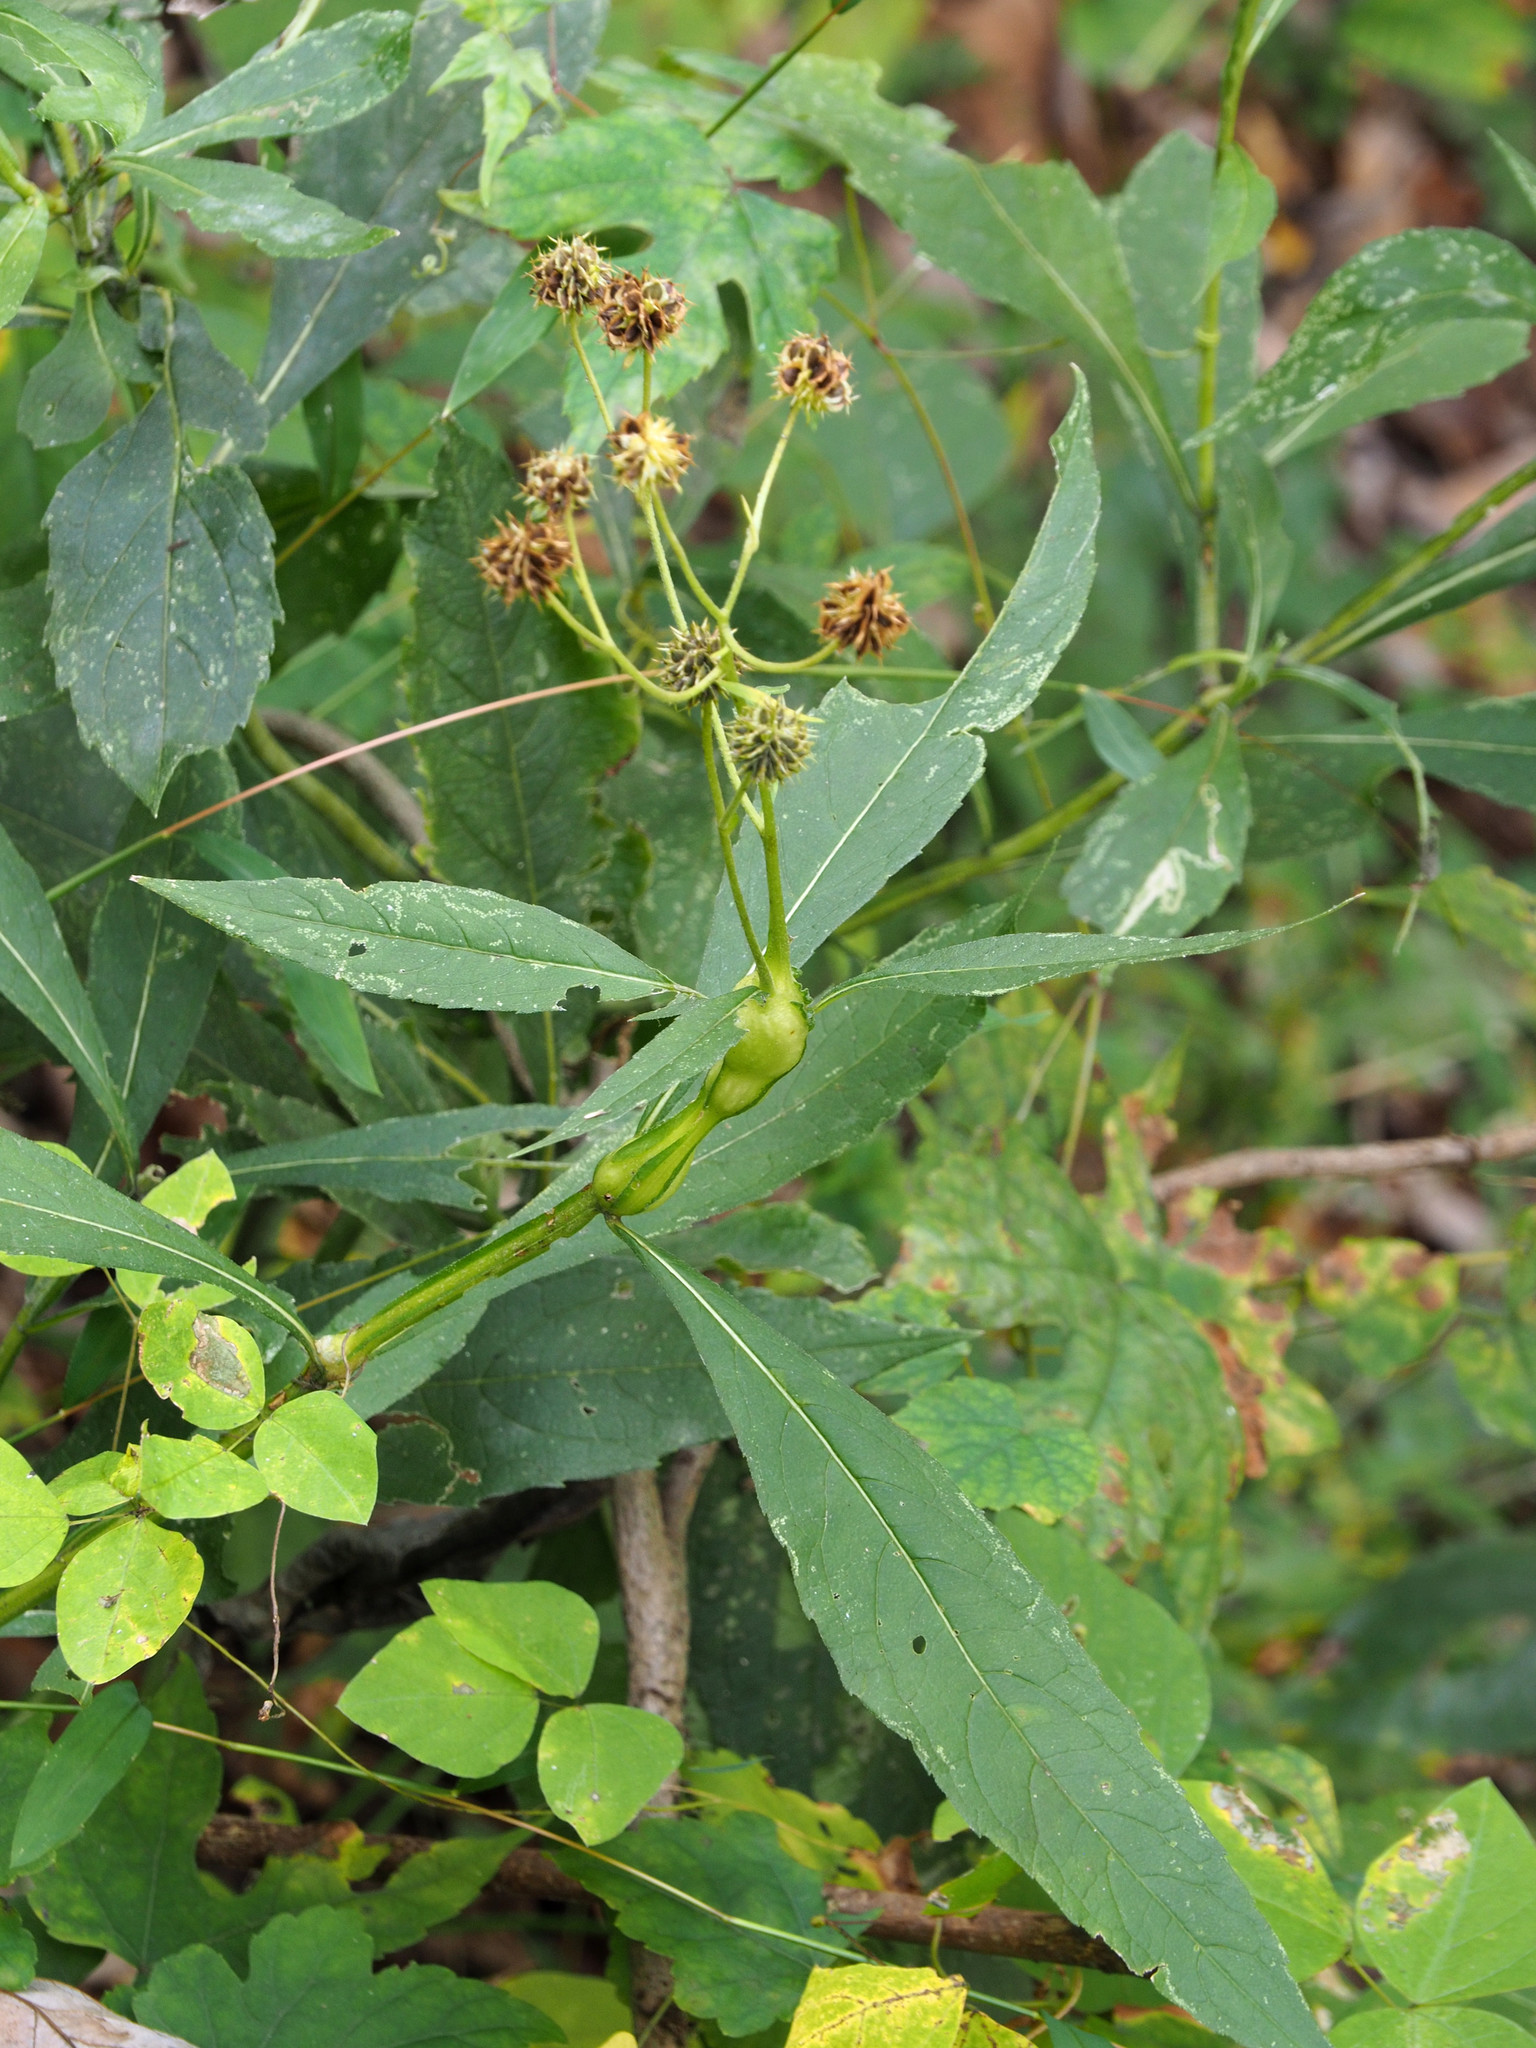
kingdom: Animalia
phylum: Arthropoda
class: Insecta
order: Diptera
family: Cecidomyiidae
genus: Neolasioptera
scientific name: Neolasioptera verbesinae
